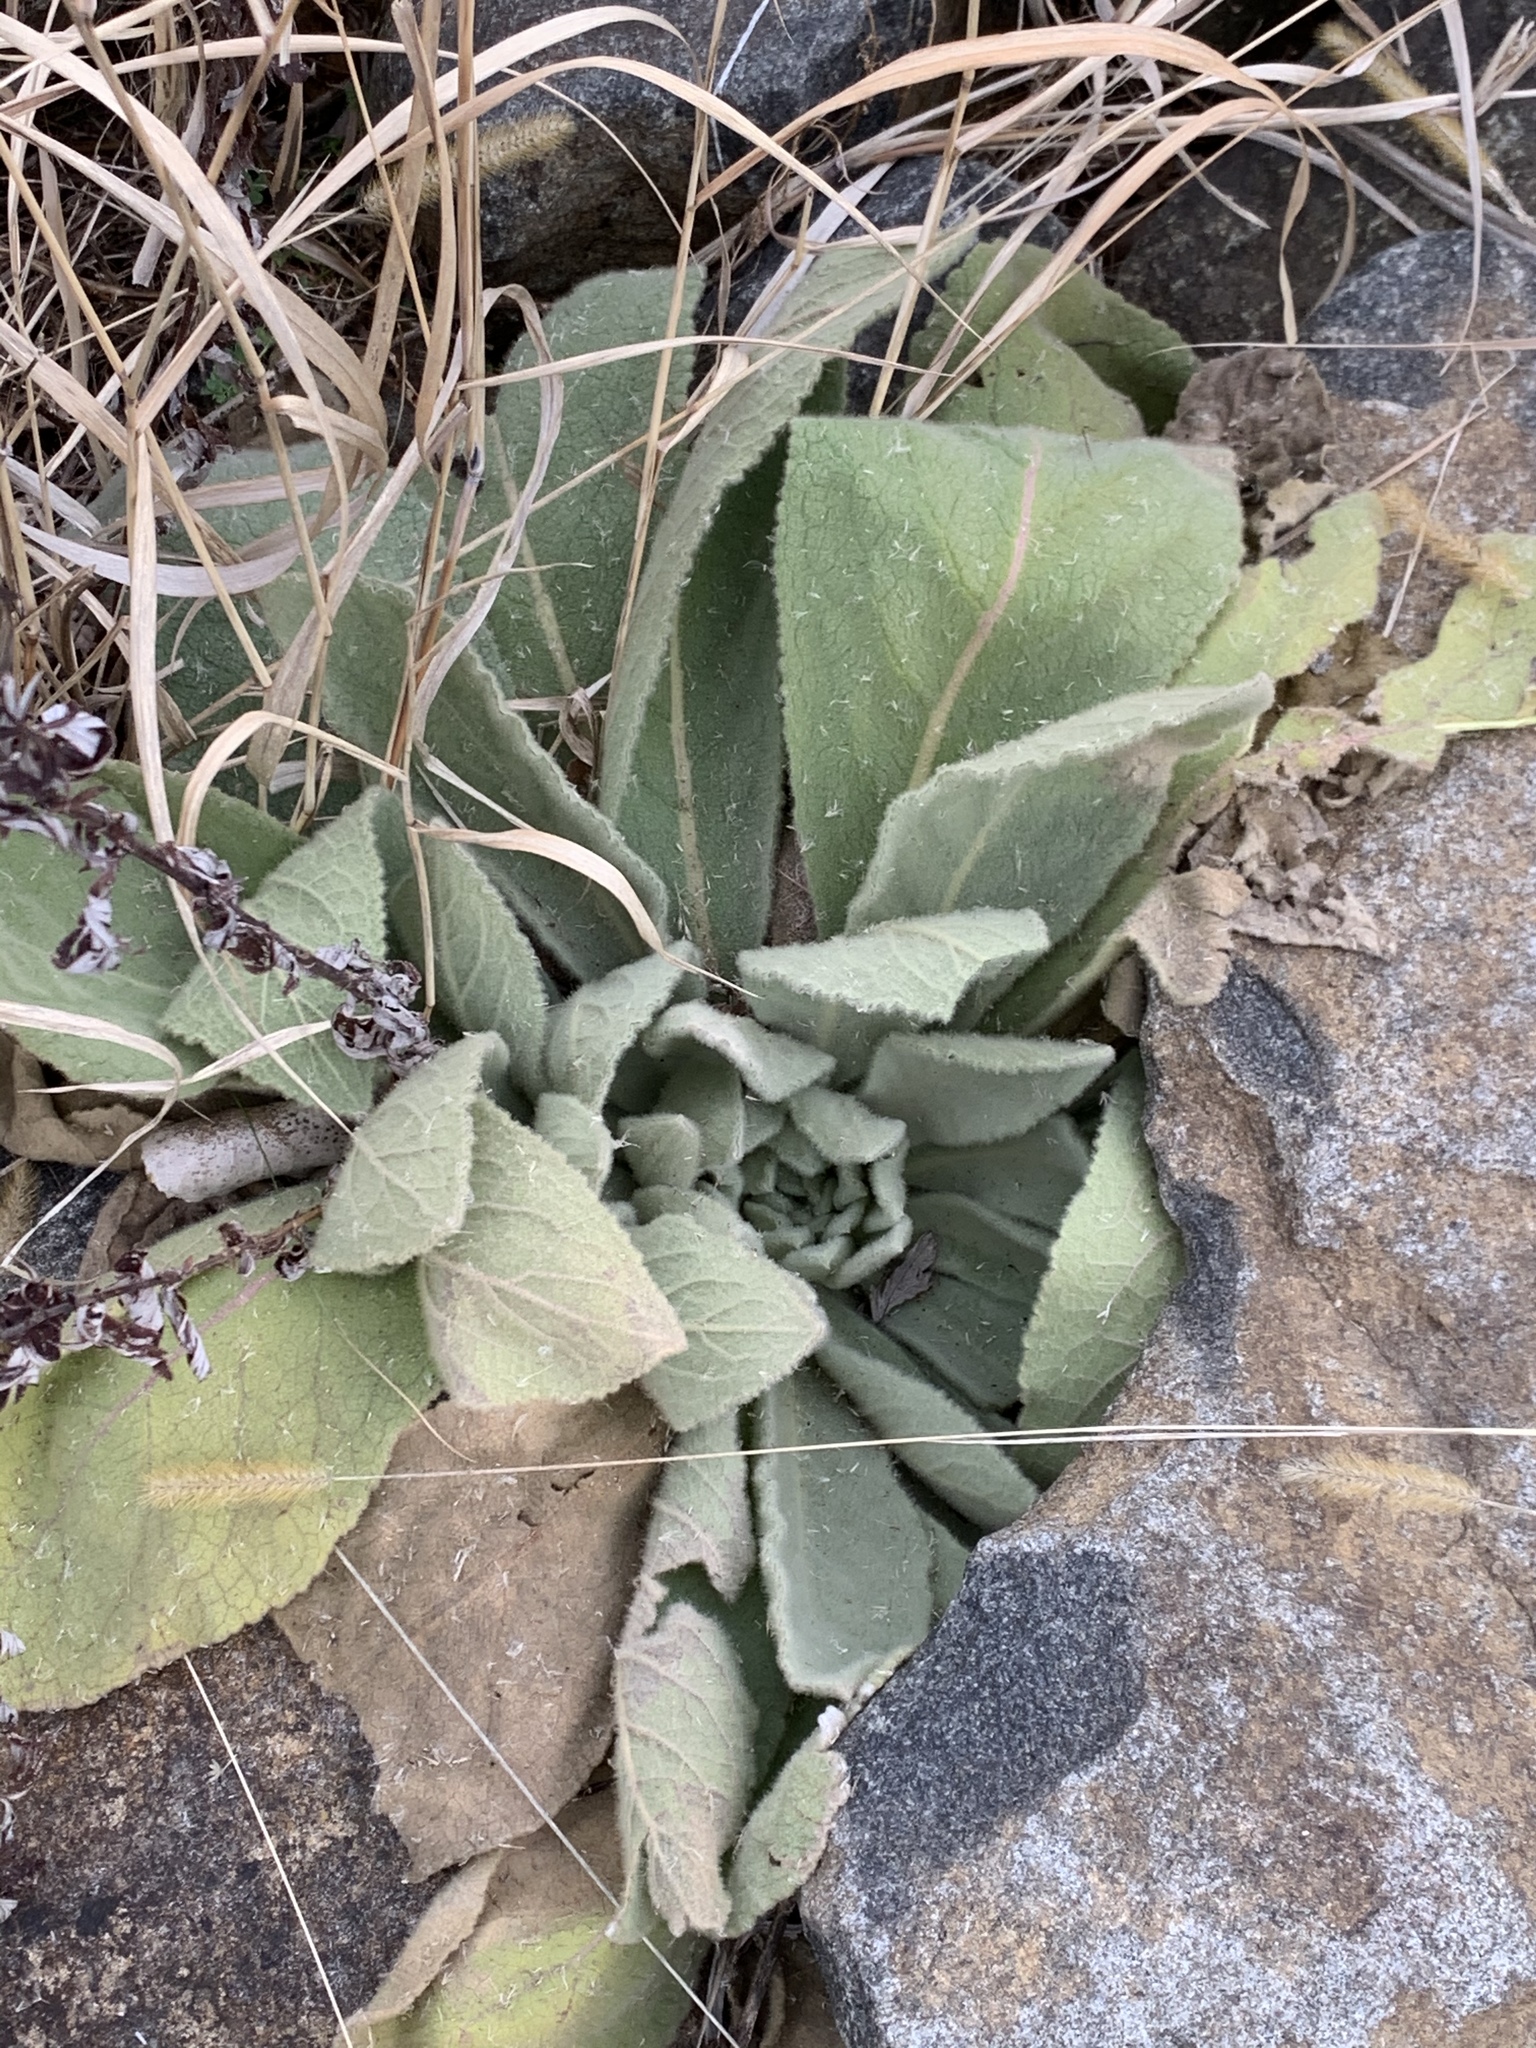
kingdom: Plantae
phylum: Tracheophyta
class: Magnoliopsida
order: Lamiales
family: Scrophulariaceae
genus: Verbascum
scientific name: Verbascum thapsus
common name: Common mullein
